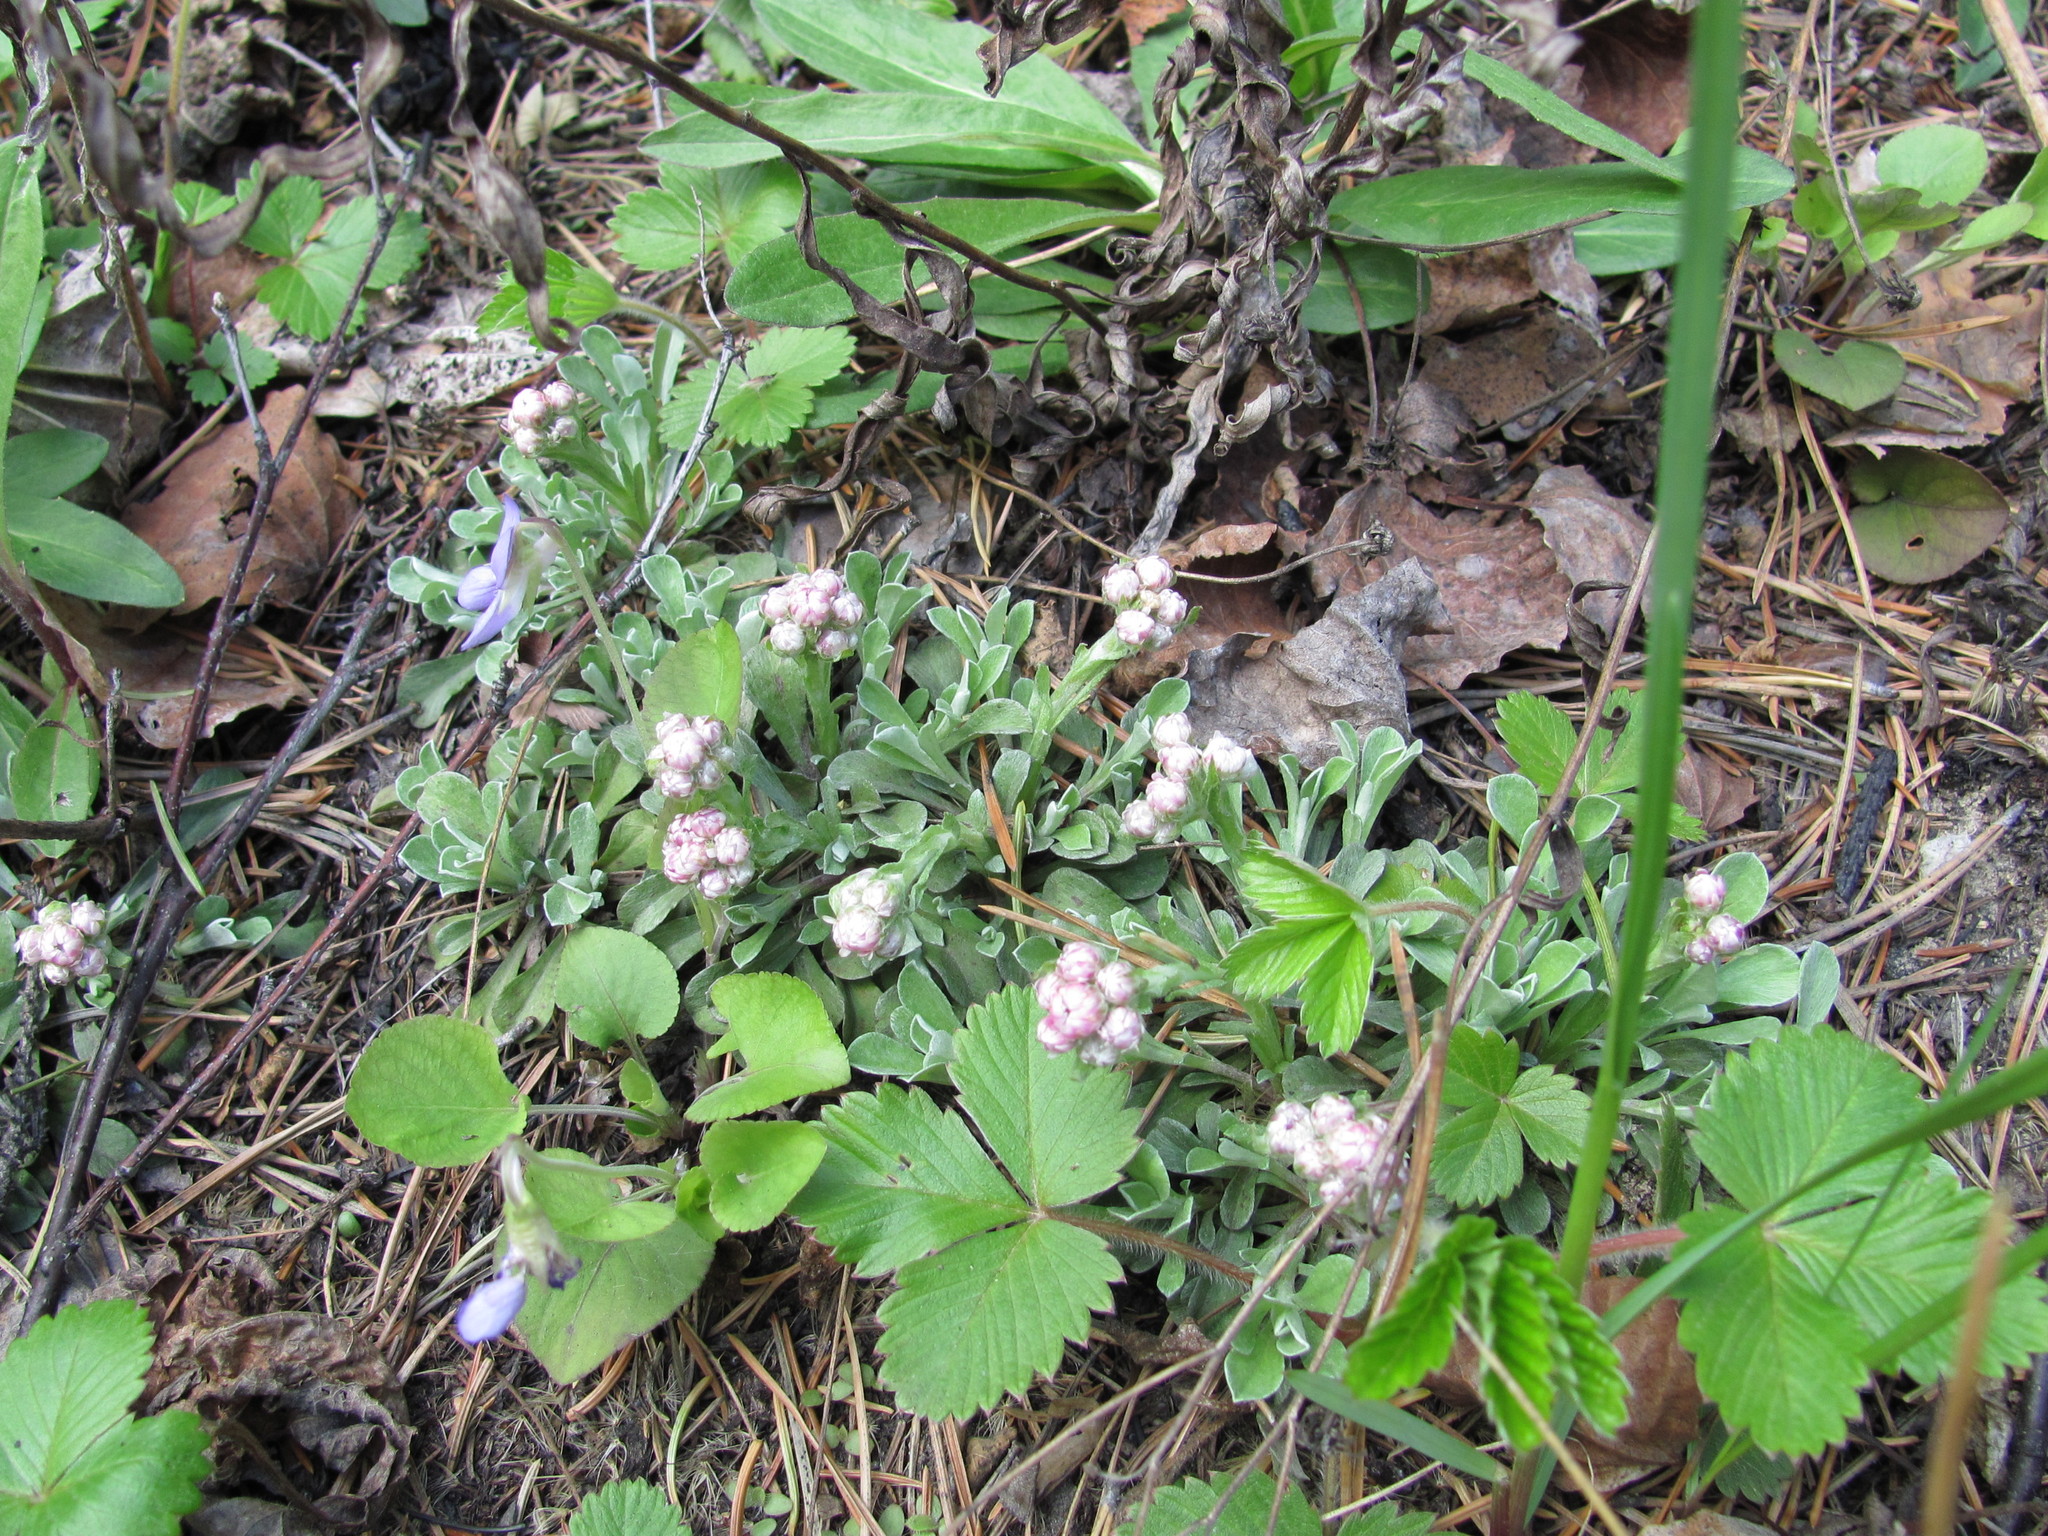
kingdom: Plantae
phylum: Tracheophyta
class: Magnoliopsida
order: Asterales
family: Asteraceae
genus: Antennaria
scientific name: Antennaria dioica
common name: Mountain everlasting
